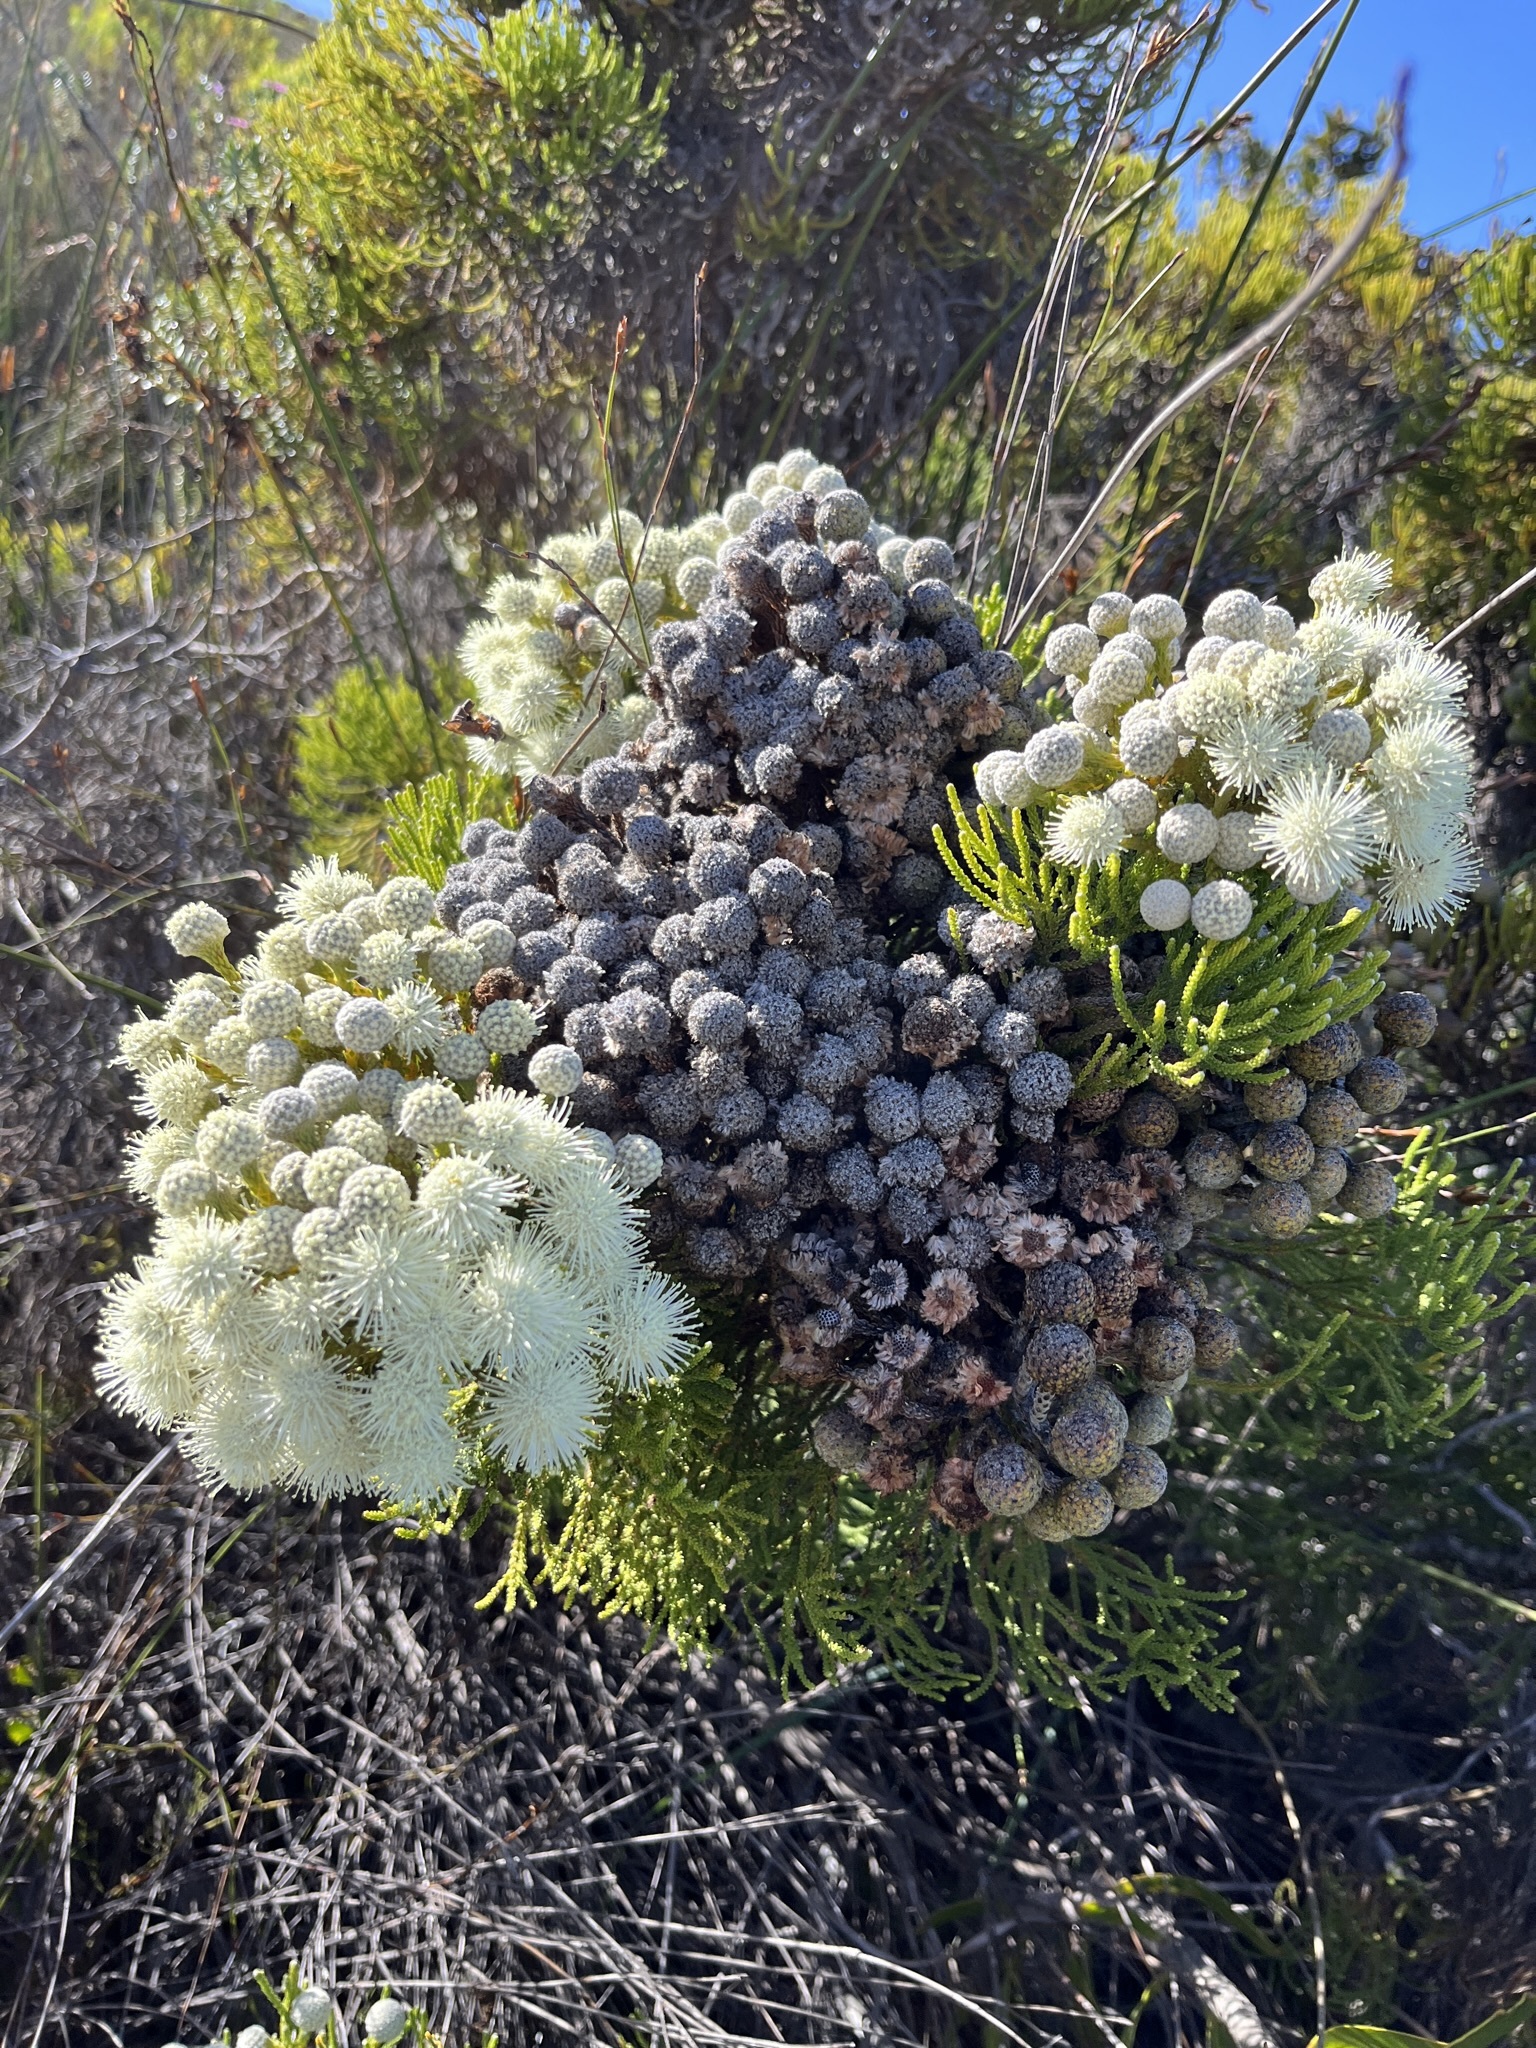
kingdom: Plantae
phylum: Tracheophyta
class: Magnoliopsida
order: Bruniales
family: Bruniaceae
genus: Brunia
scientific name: Brunia noduliflora
